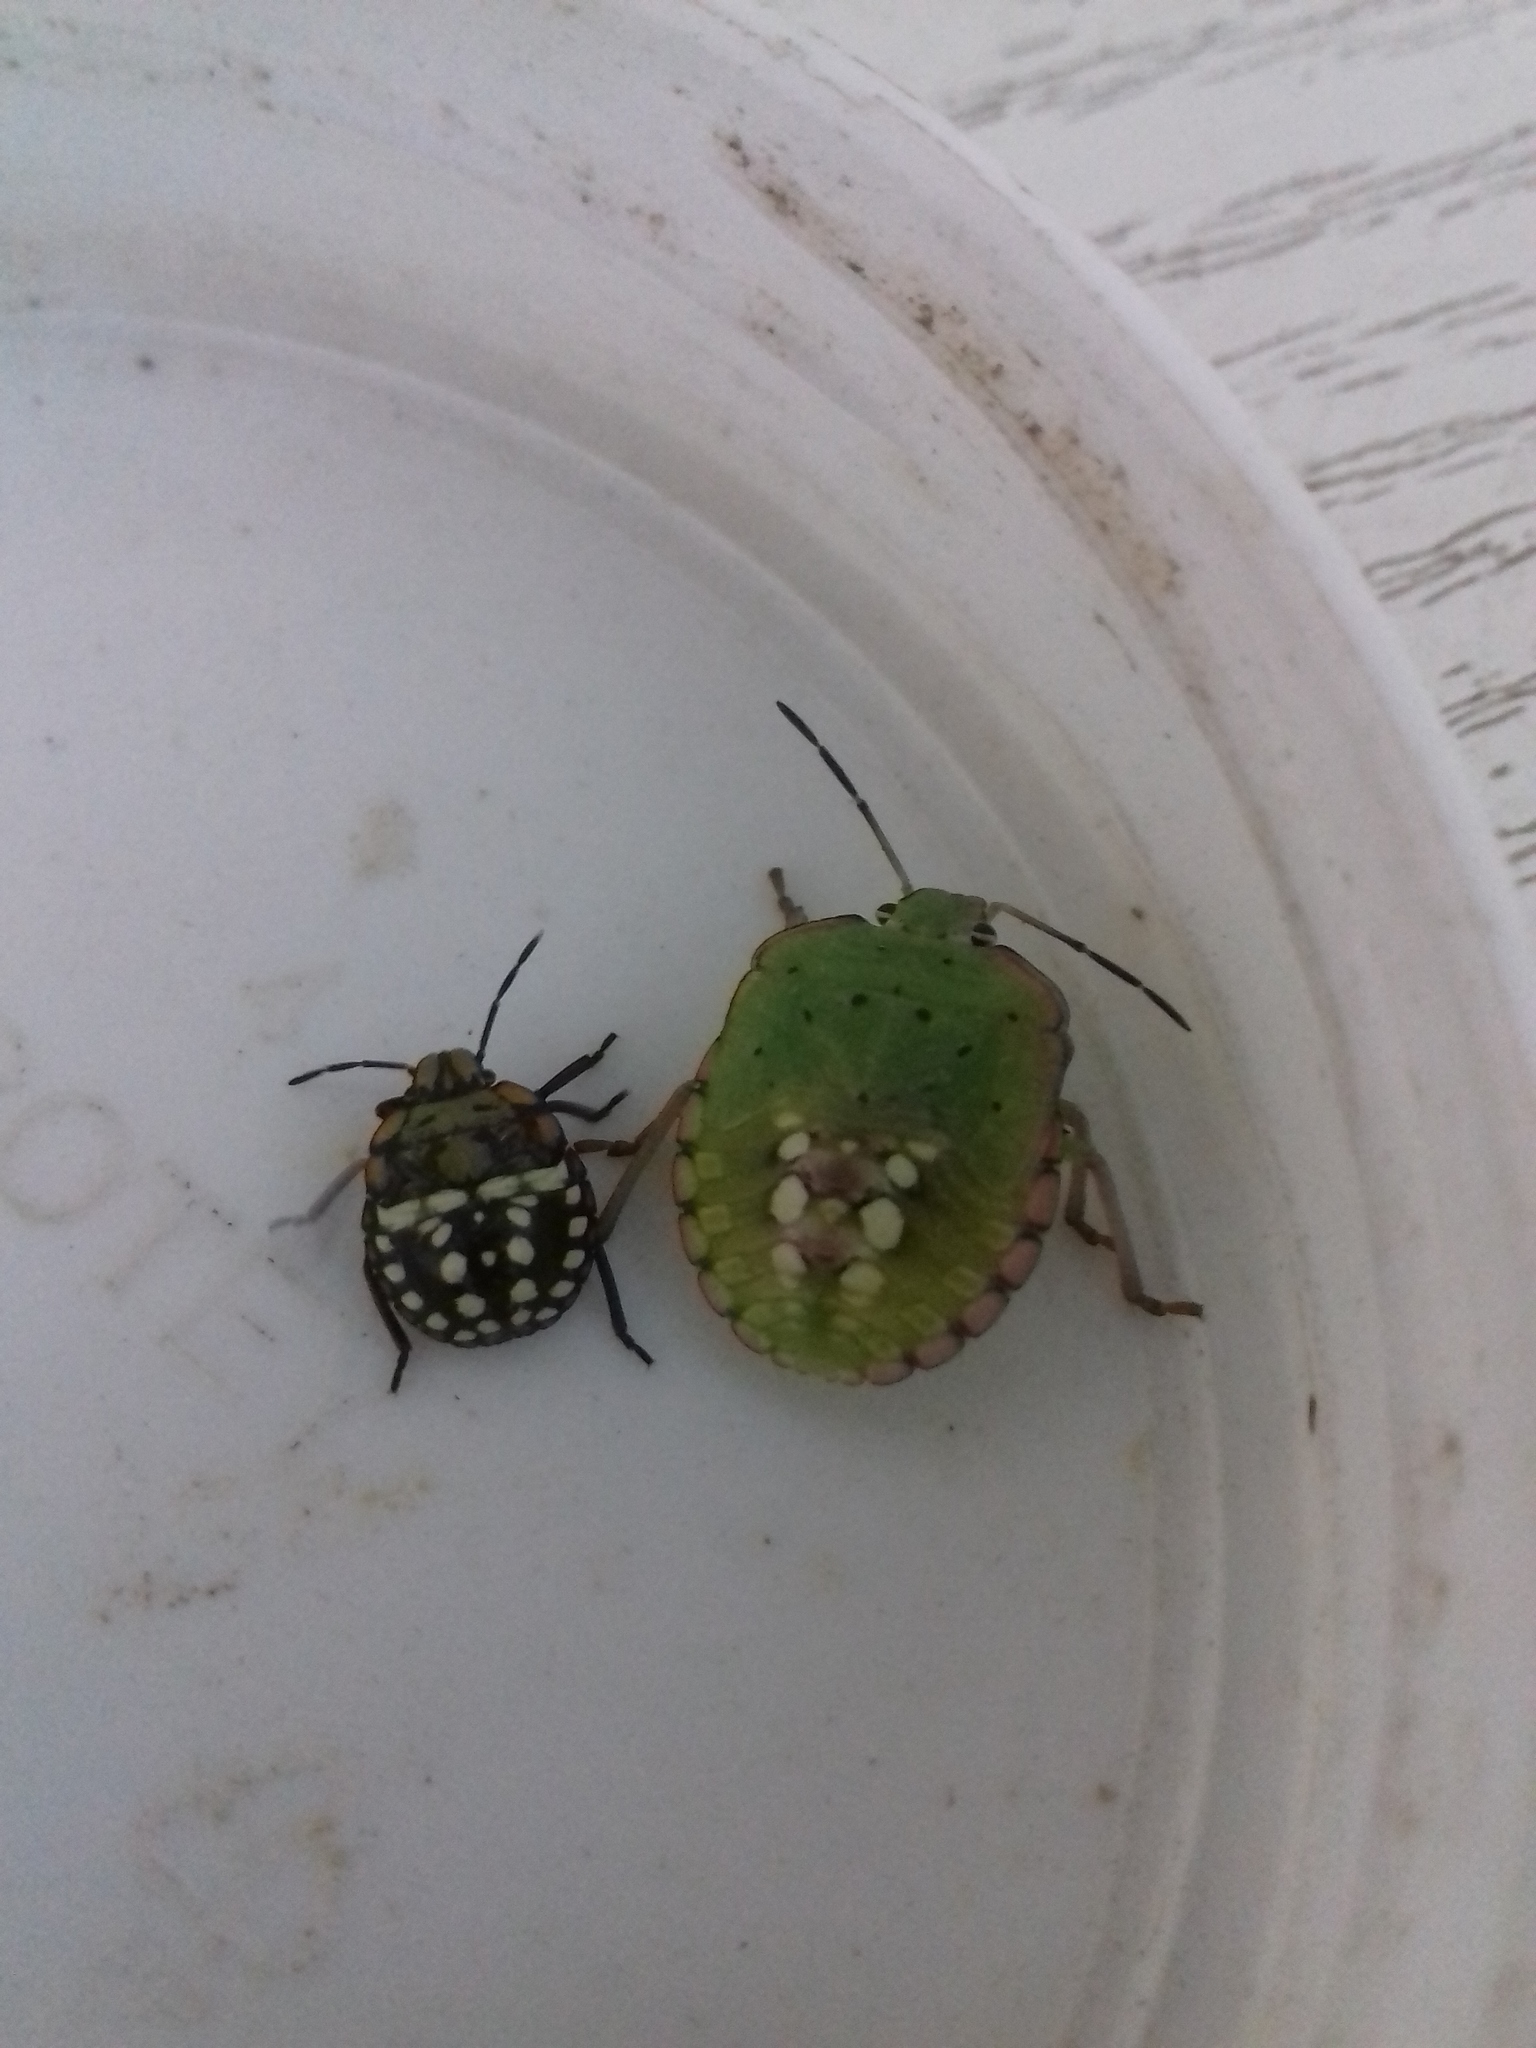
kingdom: Animalia
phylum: Arthropoda
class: Insecta
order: Hemiptera
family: Pentatomidae
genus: Nezara
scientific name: Nezara viridula
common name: Southern green stink bug
